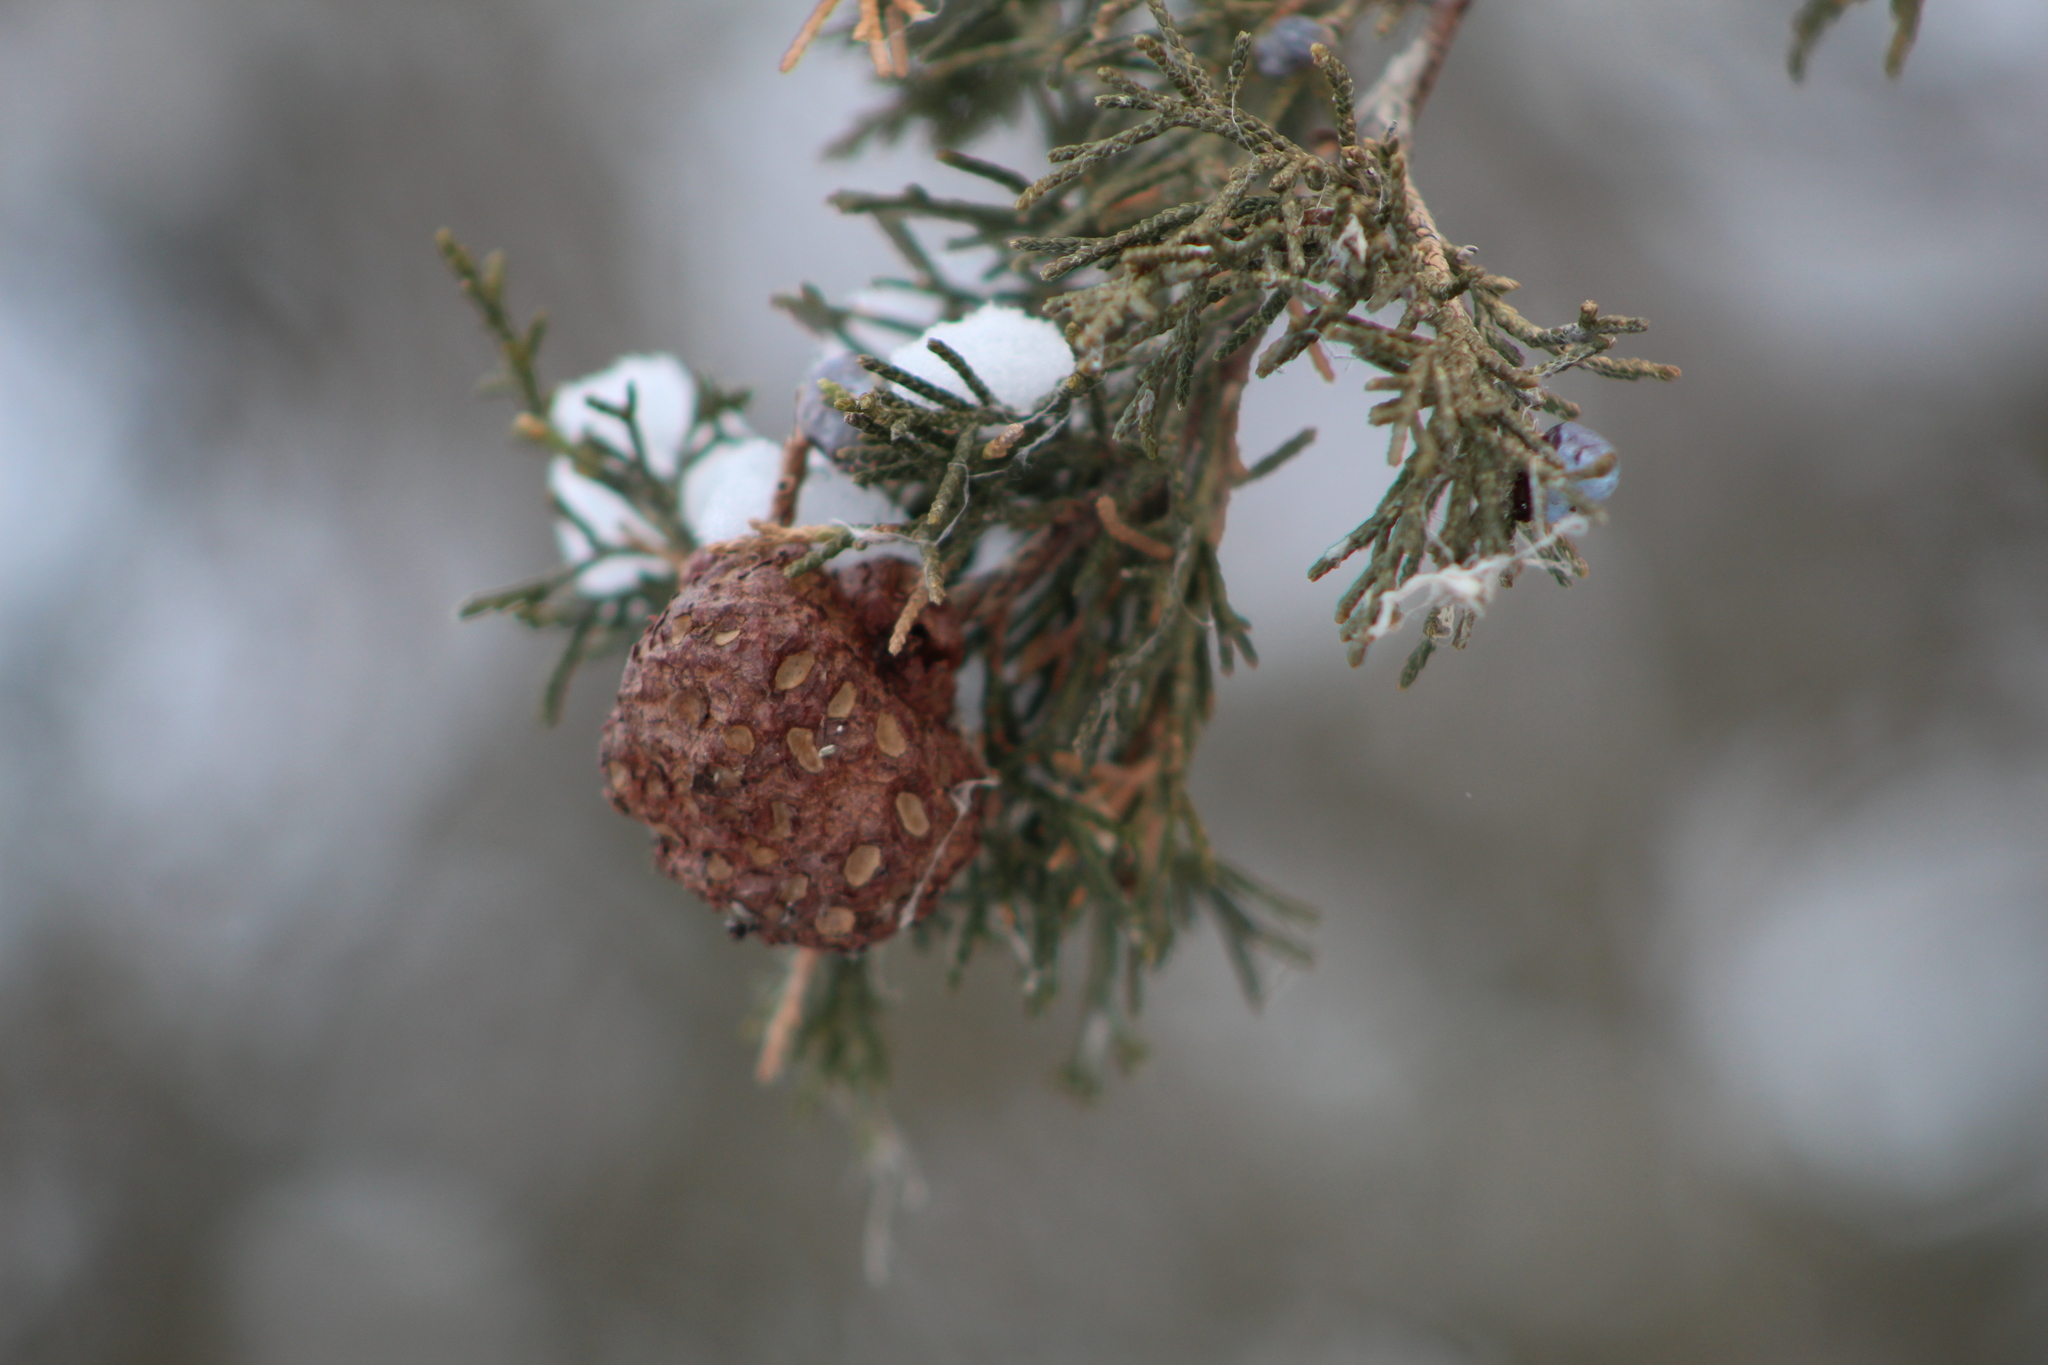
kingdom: Fungi
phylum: Basidiomycota
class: Pucciniomycetes
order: Pucciniales
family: Gymnosporangiaceae
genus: Gymnosporangium
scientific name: Gymnosporangium juniperi-virginianae
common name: Juniper-apple rust
